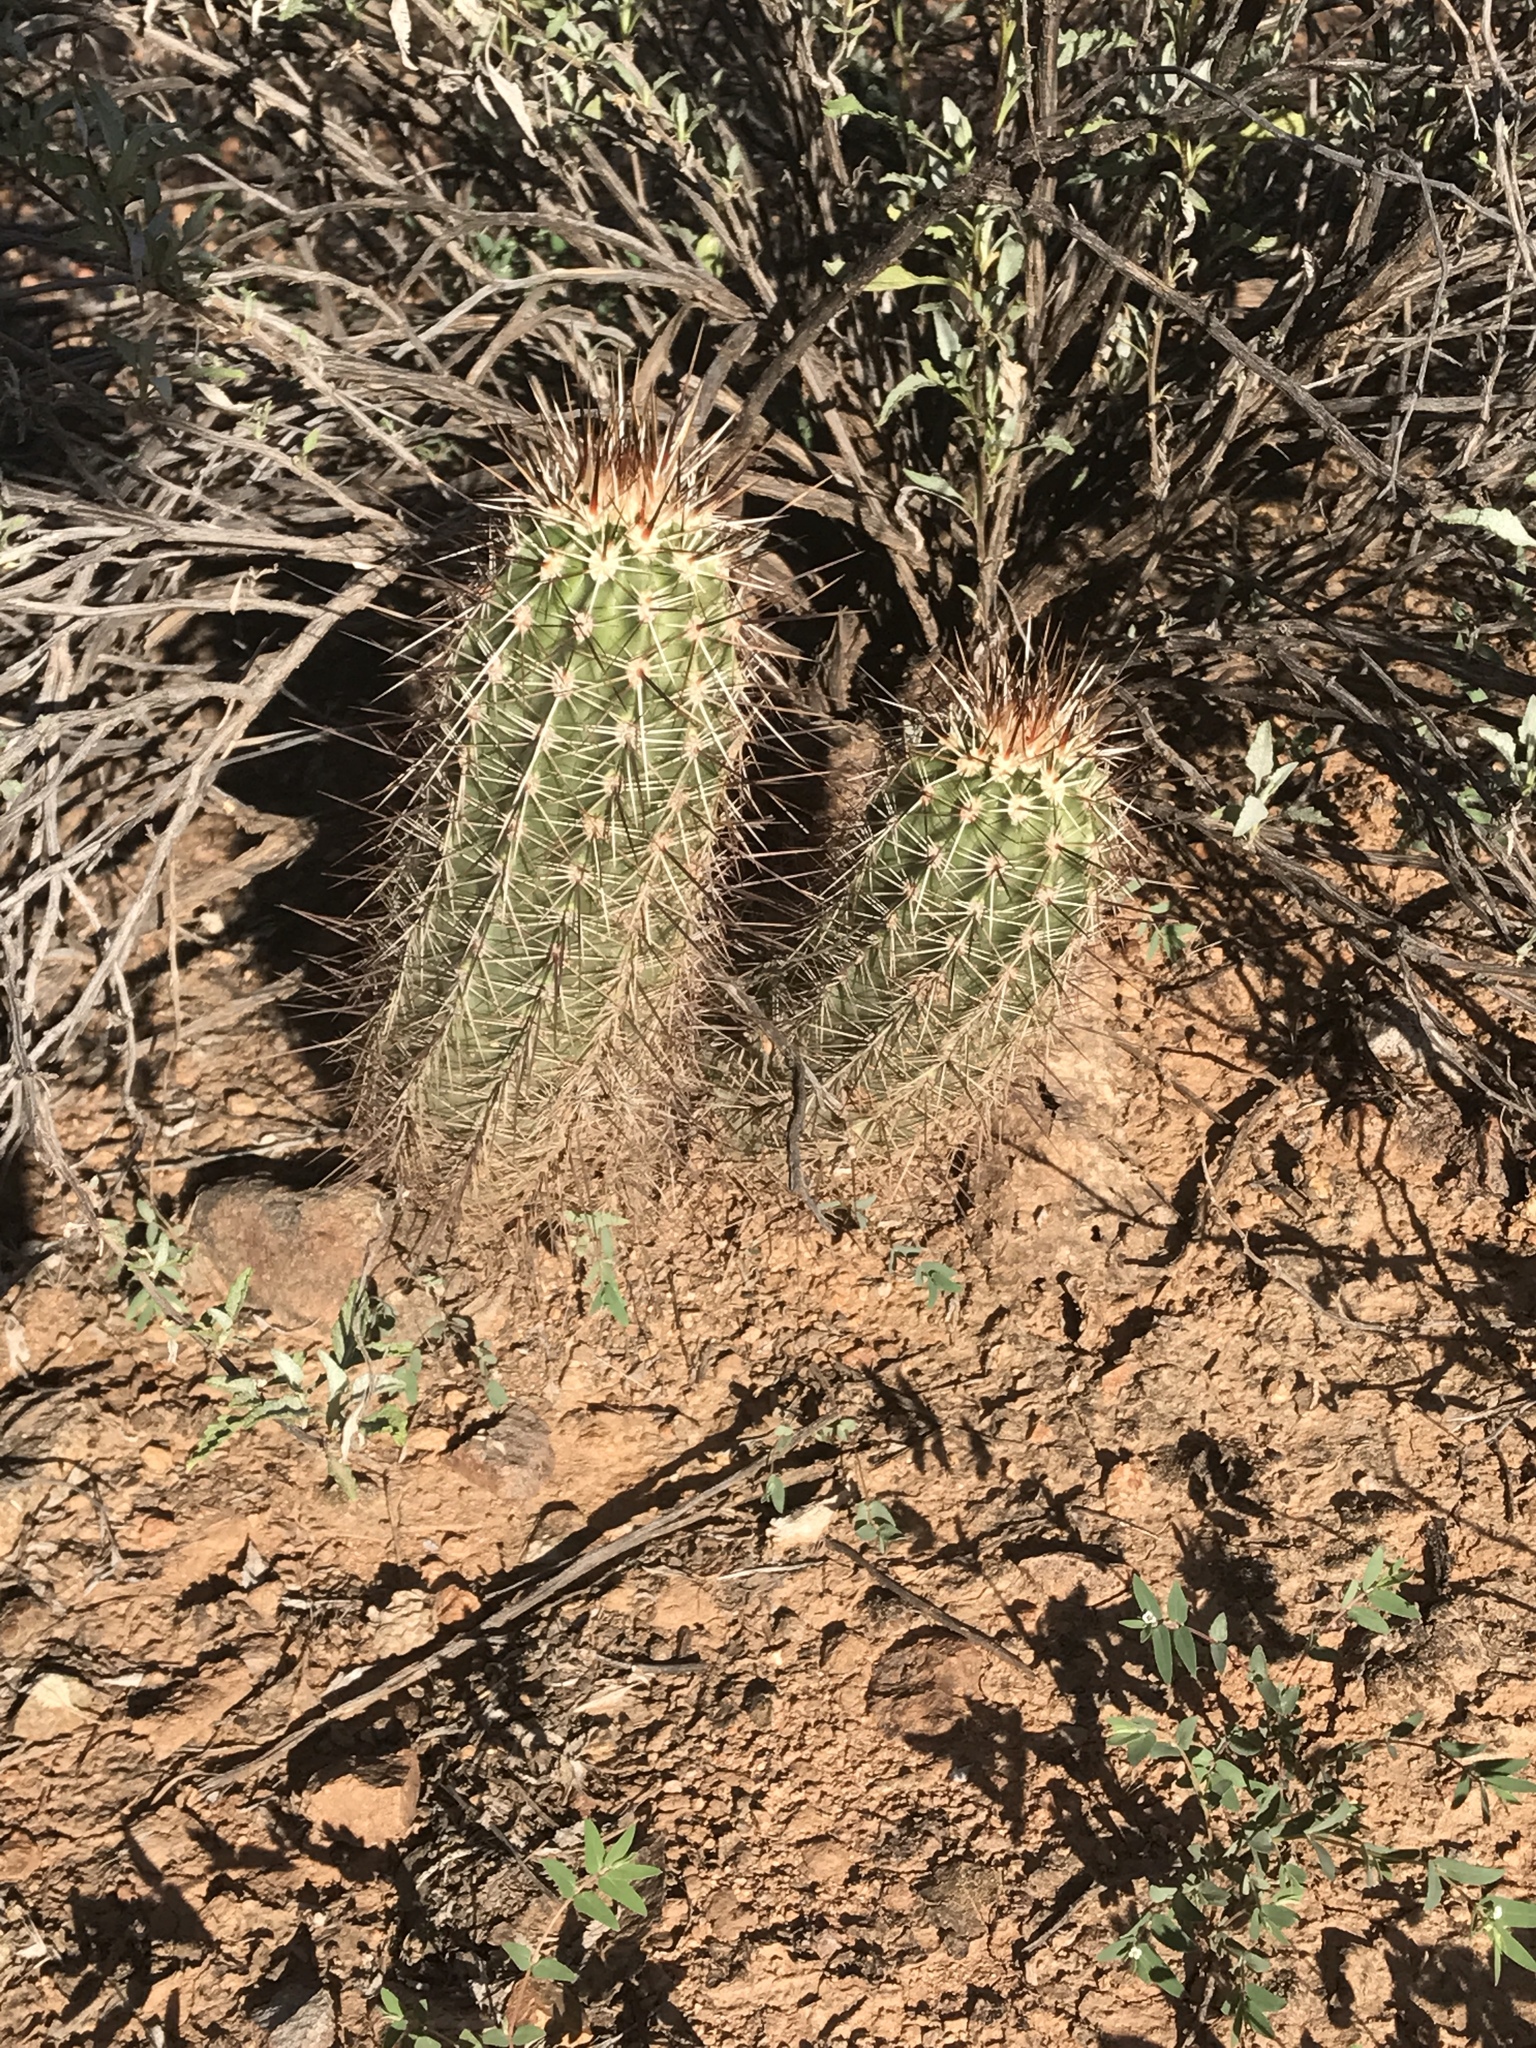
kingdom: Plantae
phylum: Tracheophyta
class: Magnoliopsida
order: Caryophyllales
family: Cactaceae
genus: Echinocereus
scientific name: Echinocereus fasciculatus
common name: Bundle hedgehog
